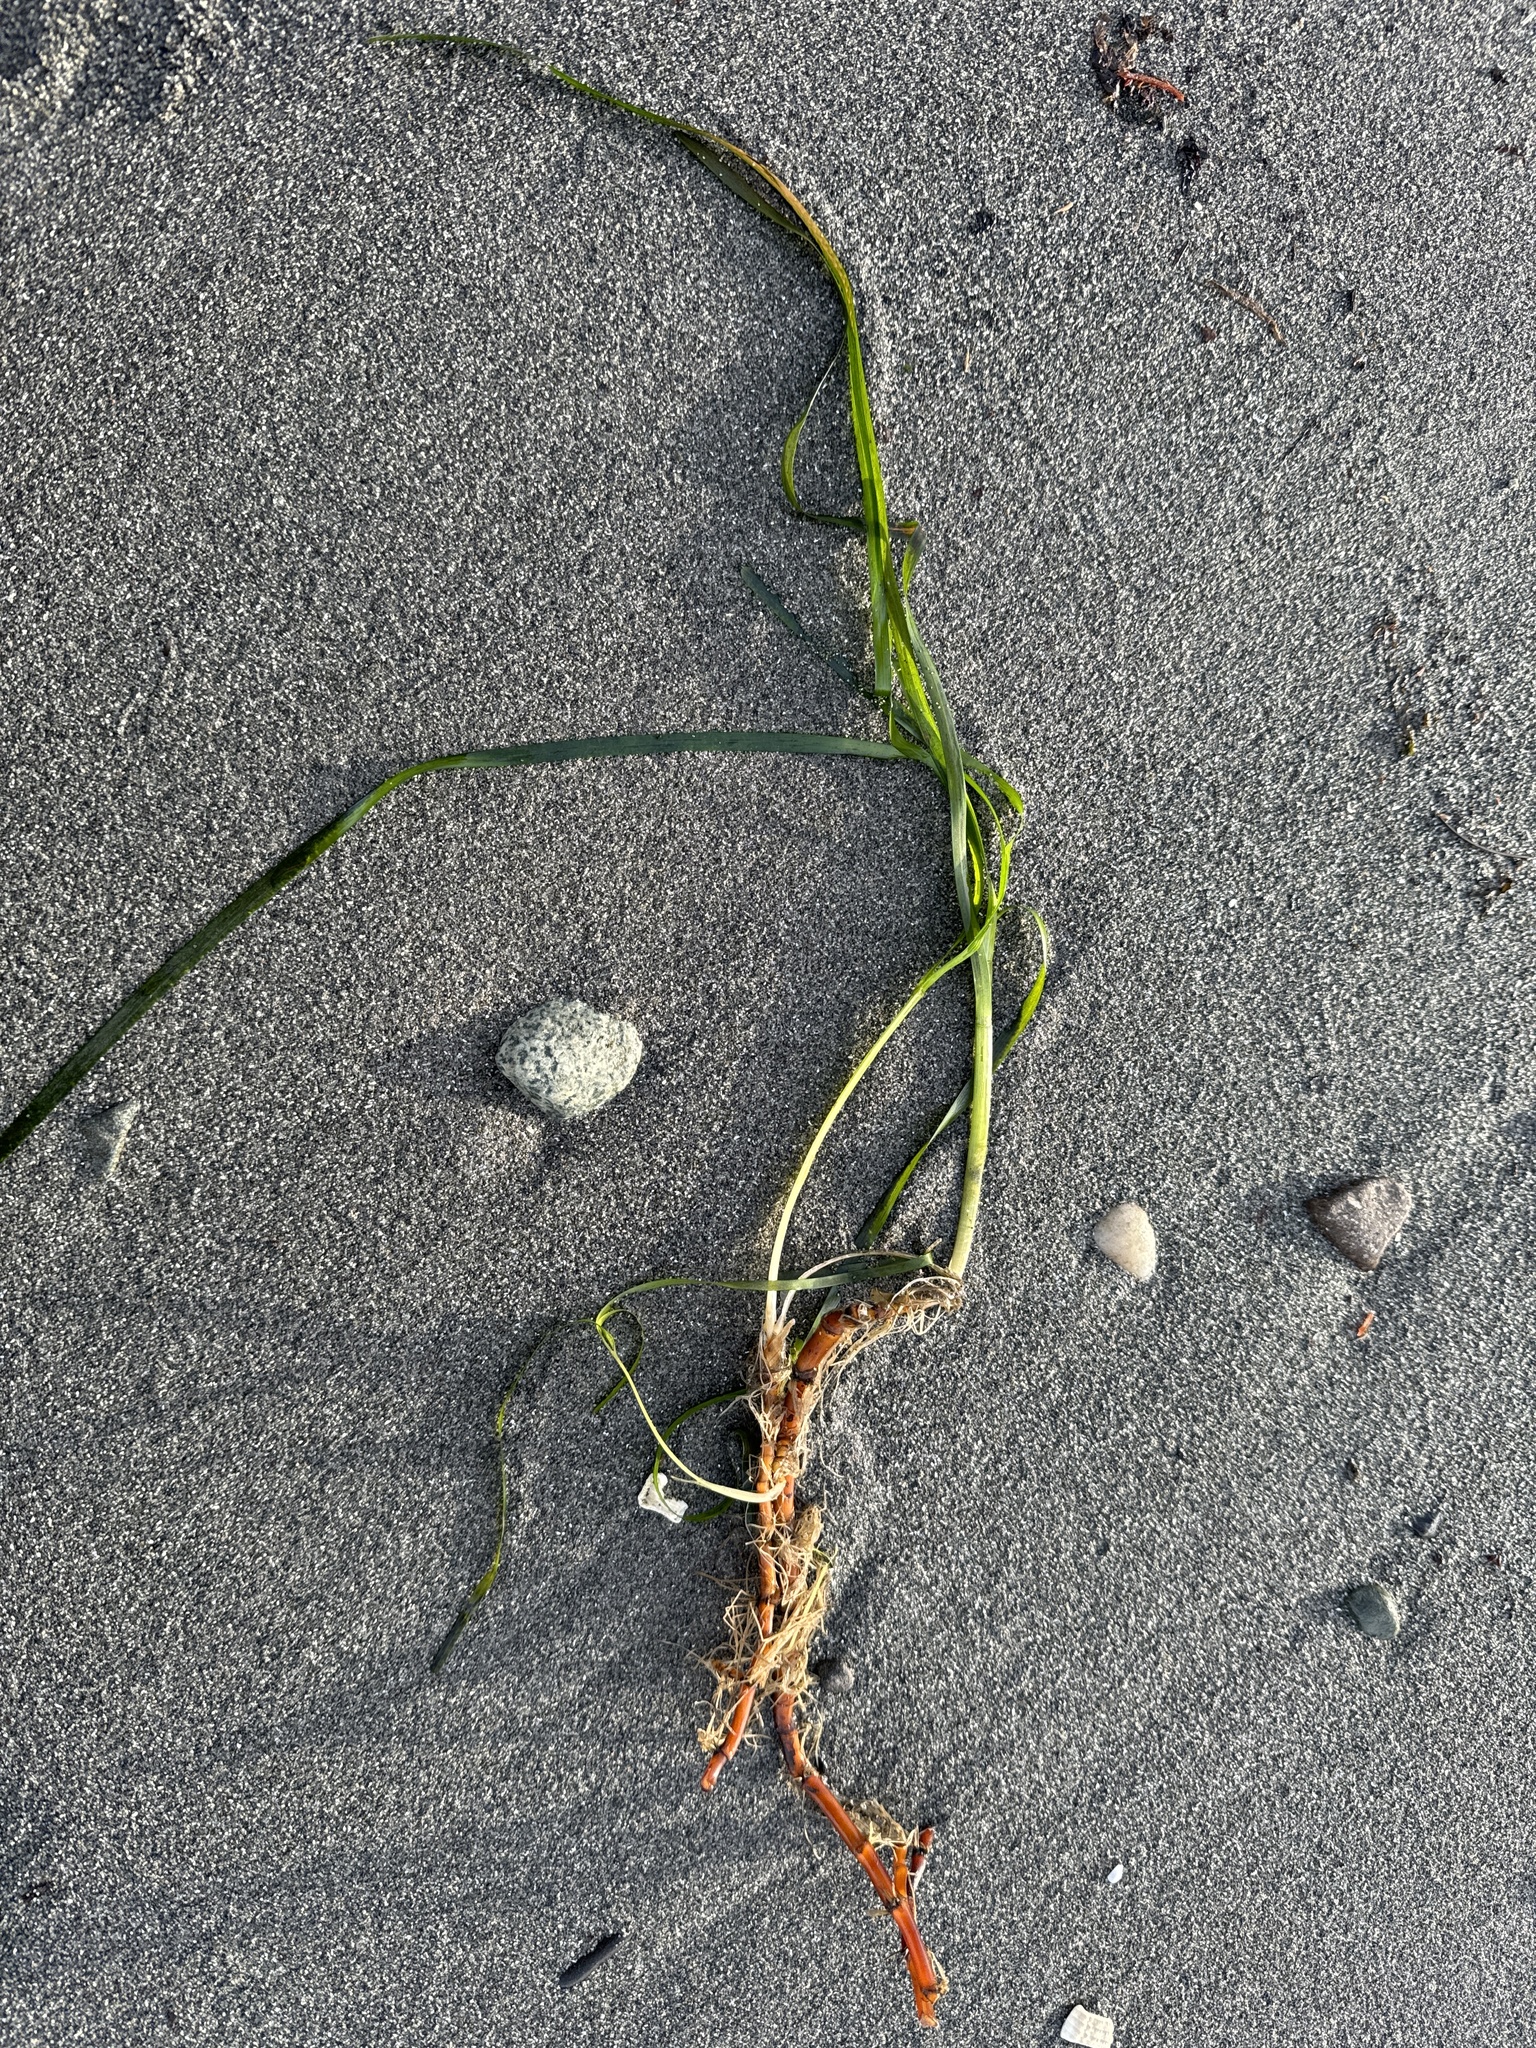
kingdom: Plantae
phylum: Tracheophyta
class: Liliopsida
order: Alismatales
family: Zosteraceae
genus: Zostera
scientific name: Zostera marina
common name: Eelgrass
